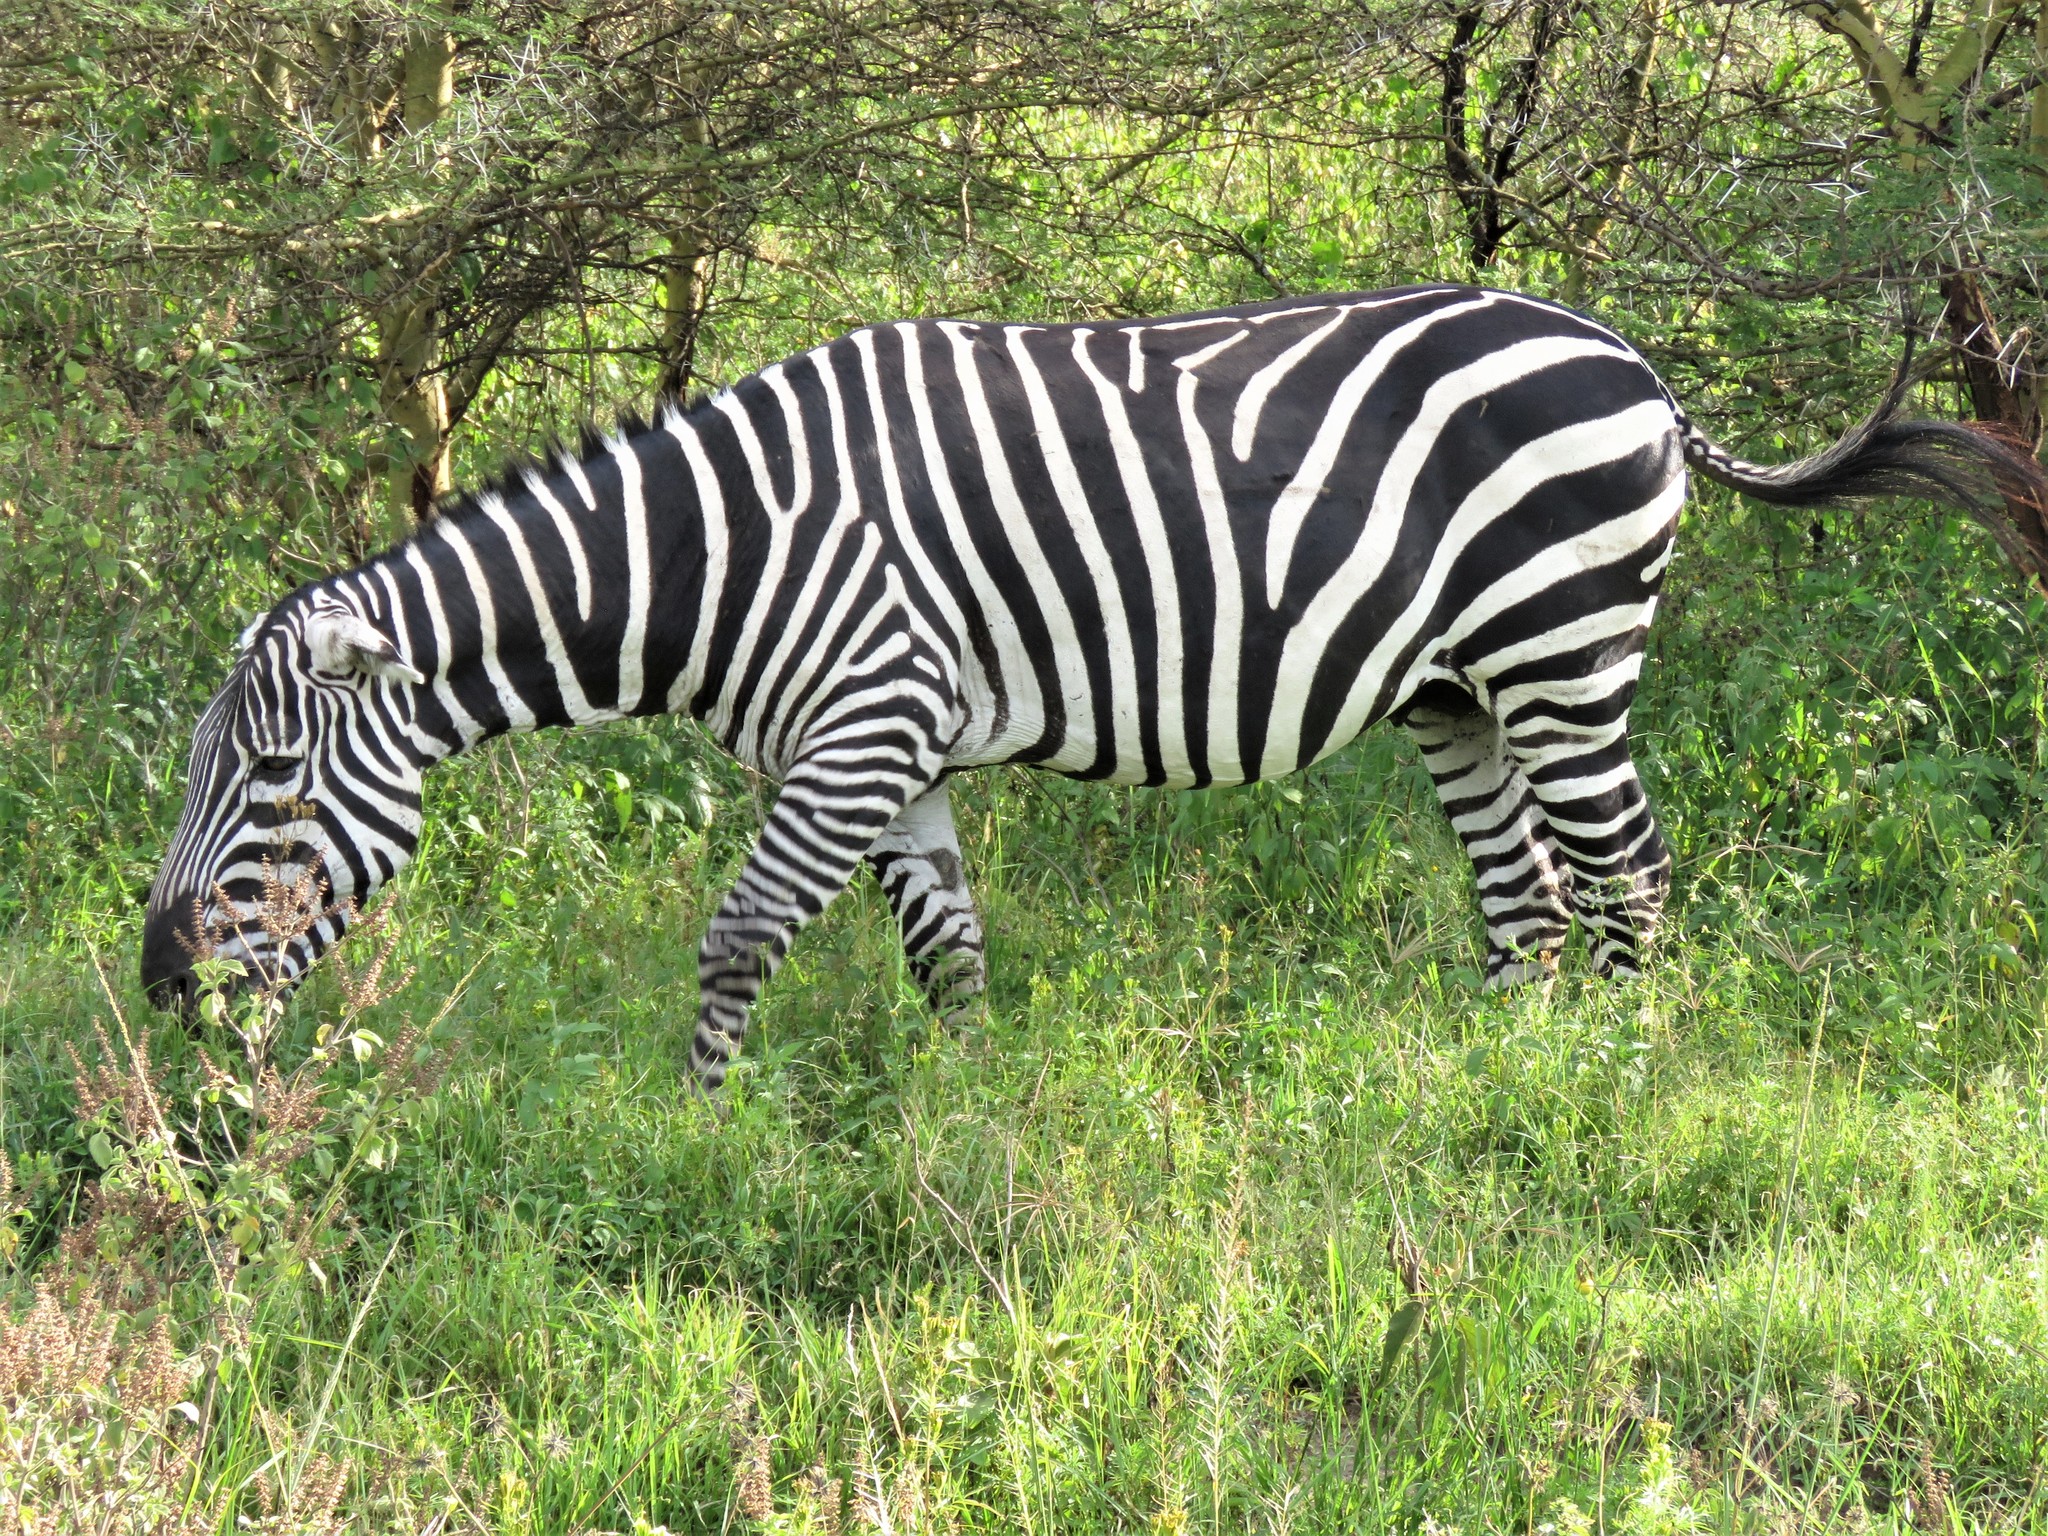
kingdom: Animalia
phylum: Chordata
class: Mammalia
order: Perissodactyla
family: Equidae
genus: Equus
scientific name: Equus quagga
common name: Plains zebra
